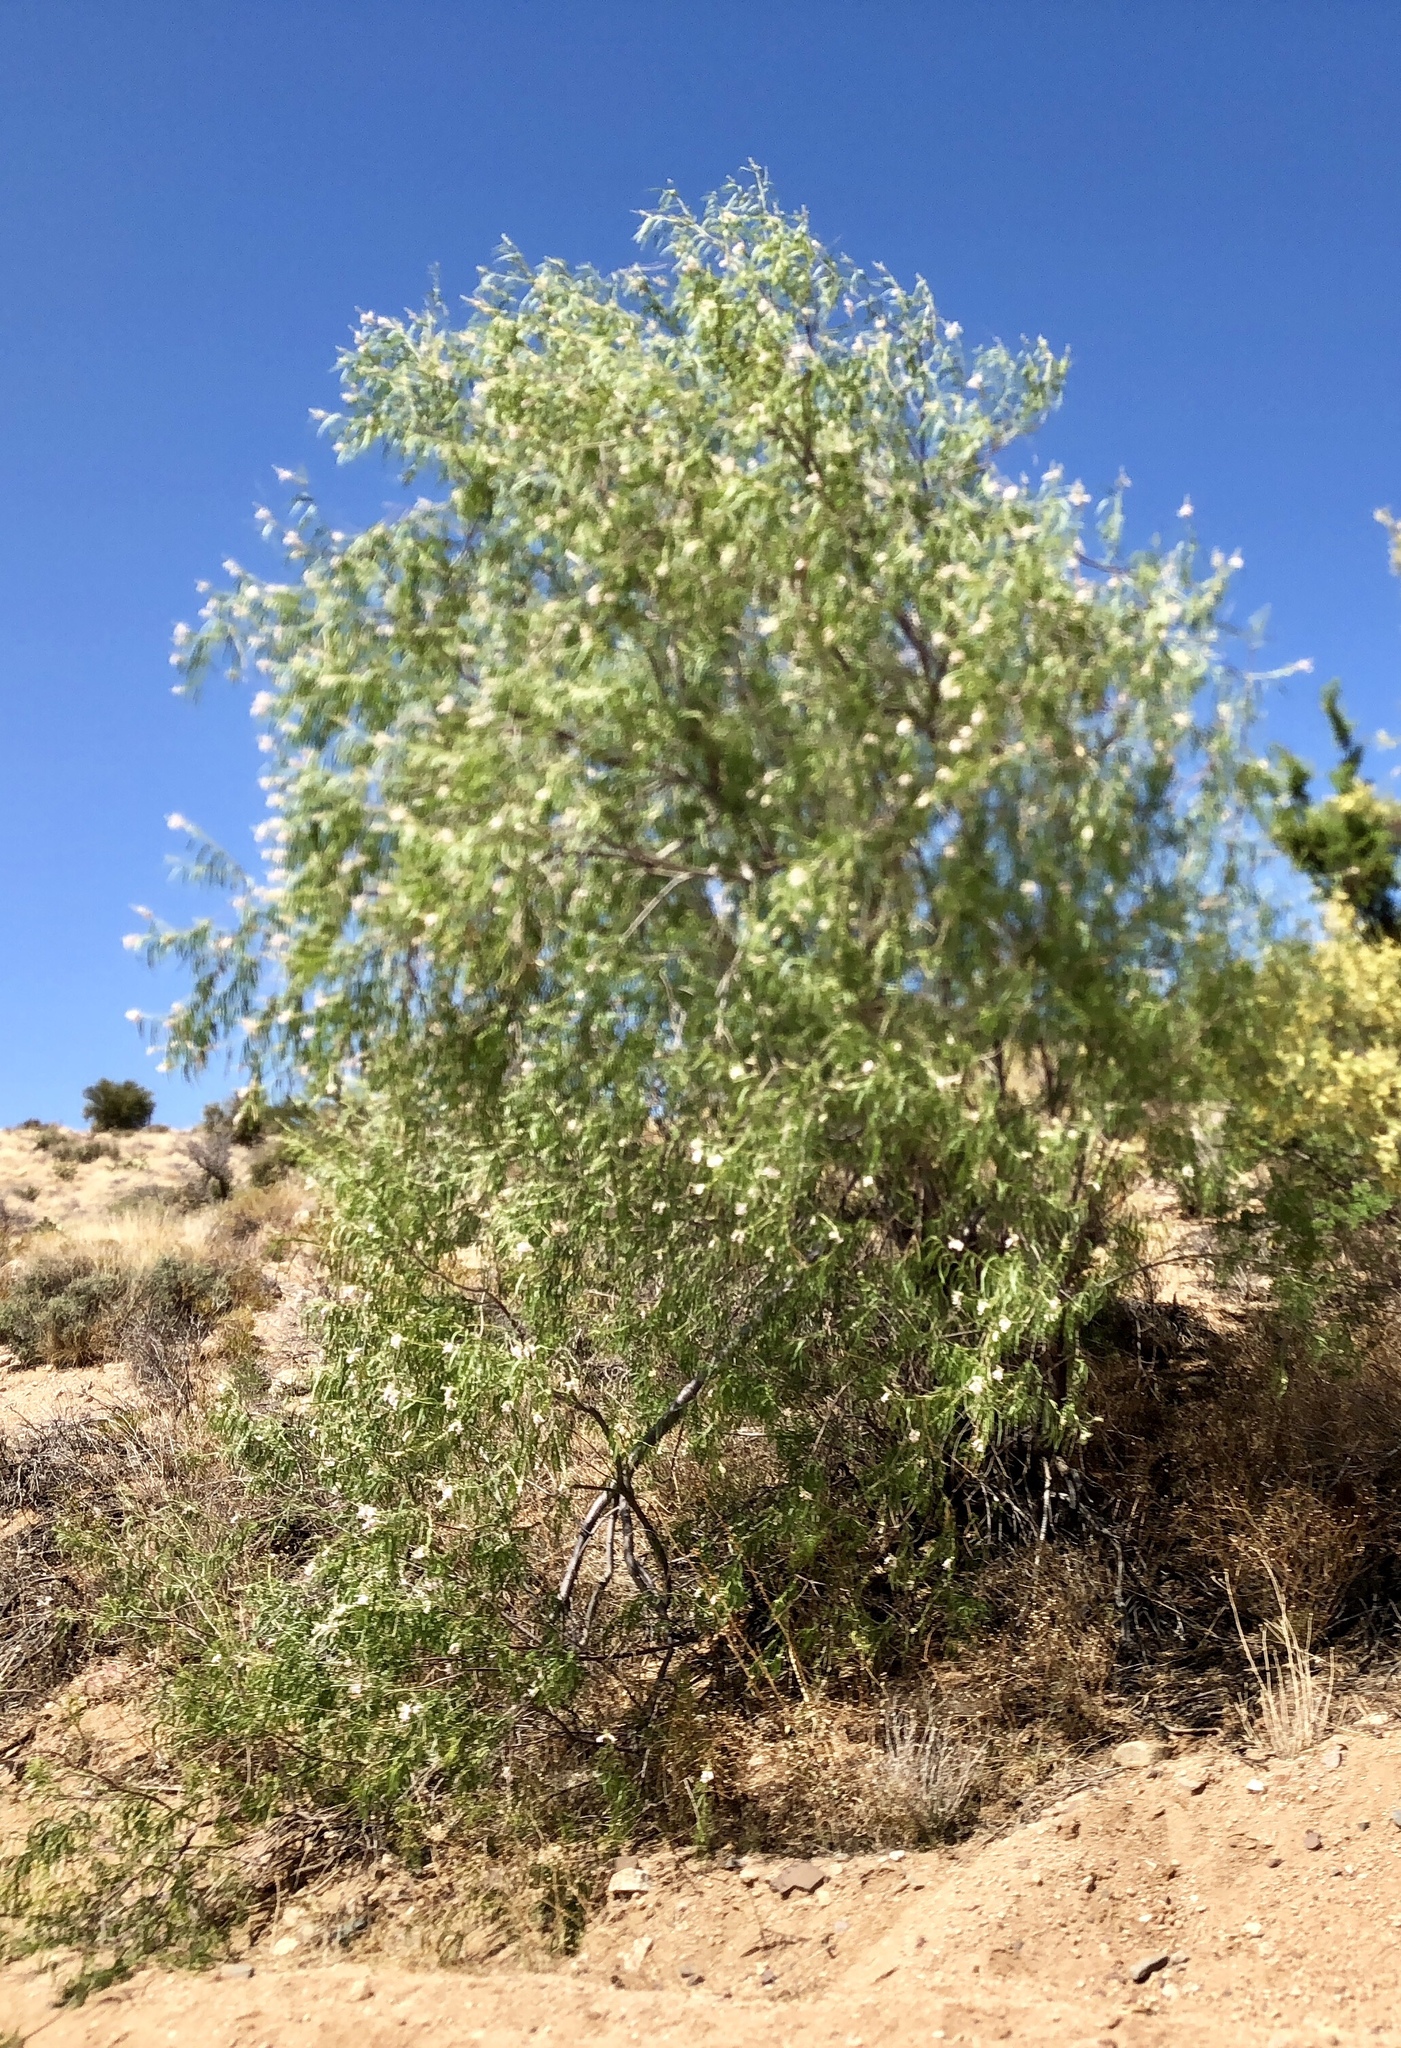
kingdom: Plantae
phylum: Tracheophyta
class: Magnoliopsida
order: Lamiales
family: Bignoniaceae
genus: Chilopsis
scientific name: Chilopsis linearis
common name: Desert-willow
